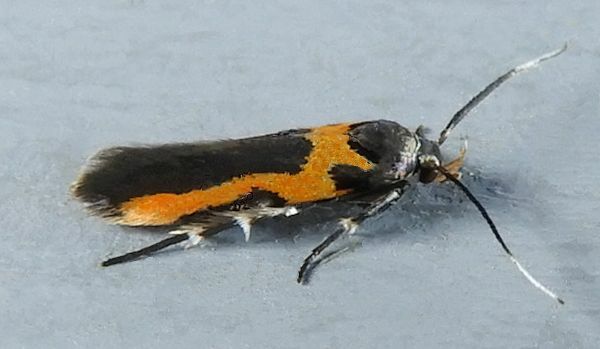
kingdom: Animalia
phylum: Arthropoda
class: Insecta
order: Lepidoptera
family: Cosmopterigidae
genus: Euclemensia
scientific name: Euclemensia bassettella
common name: Kermes scale moth
